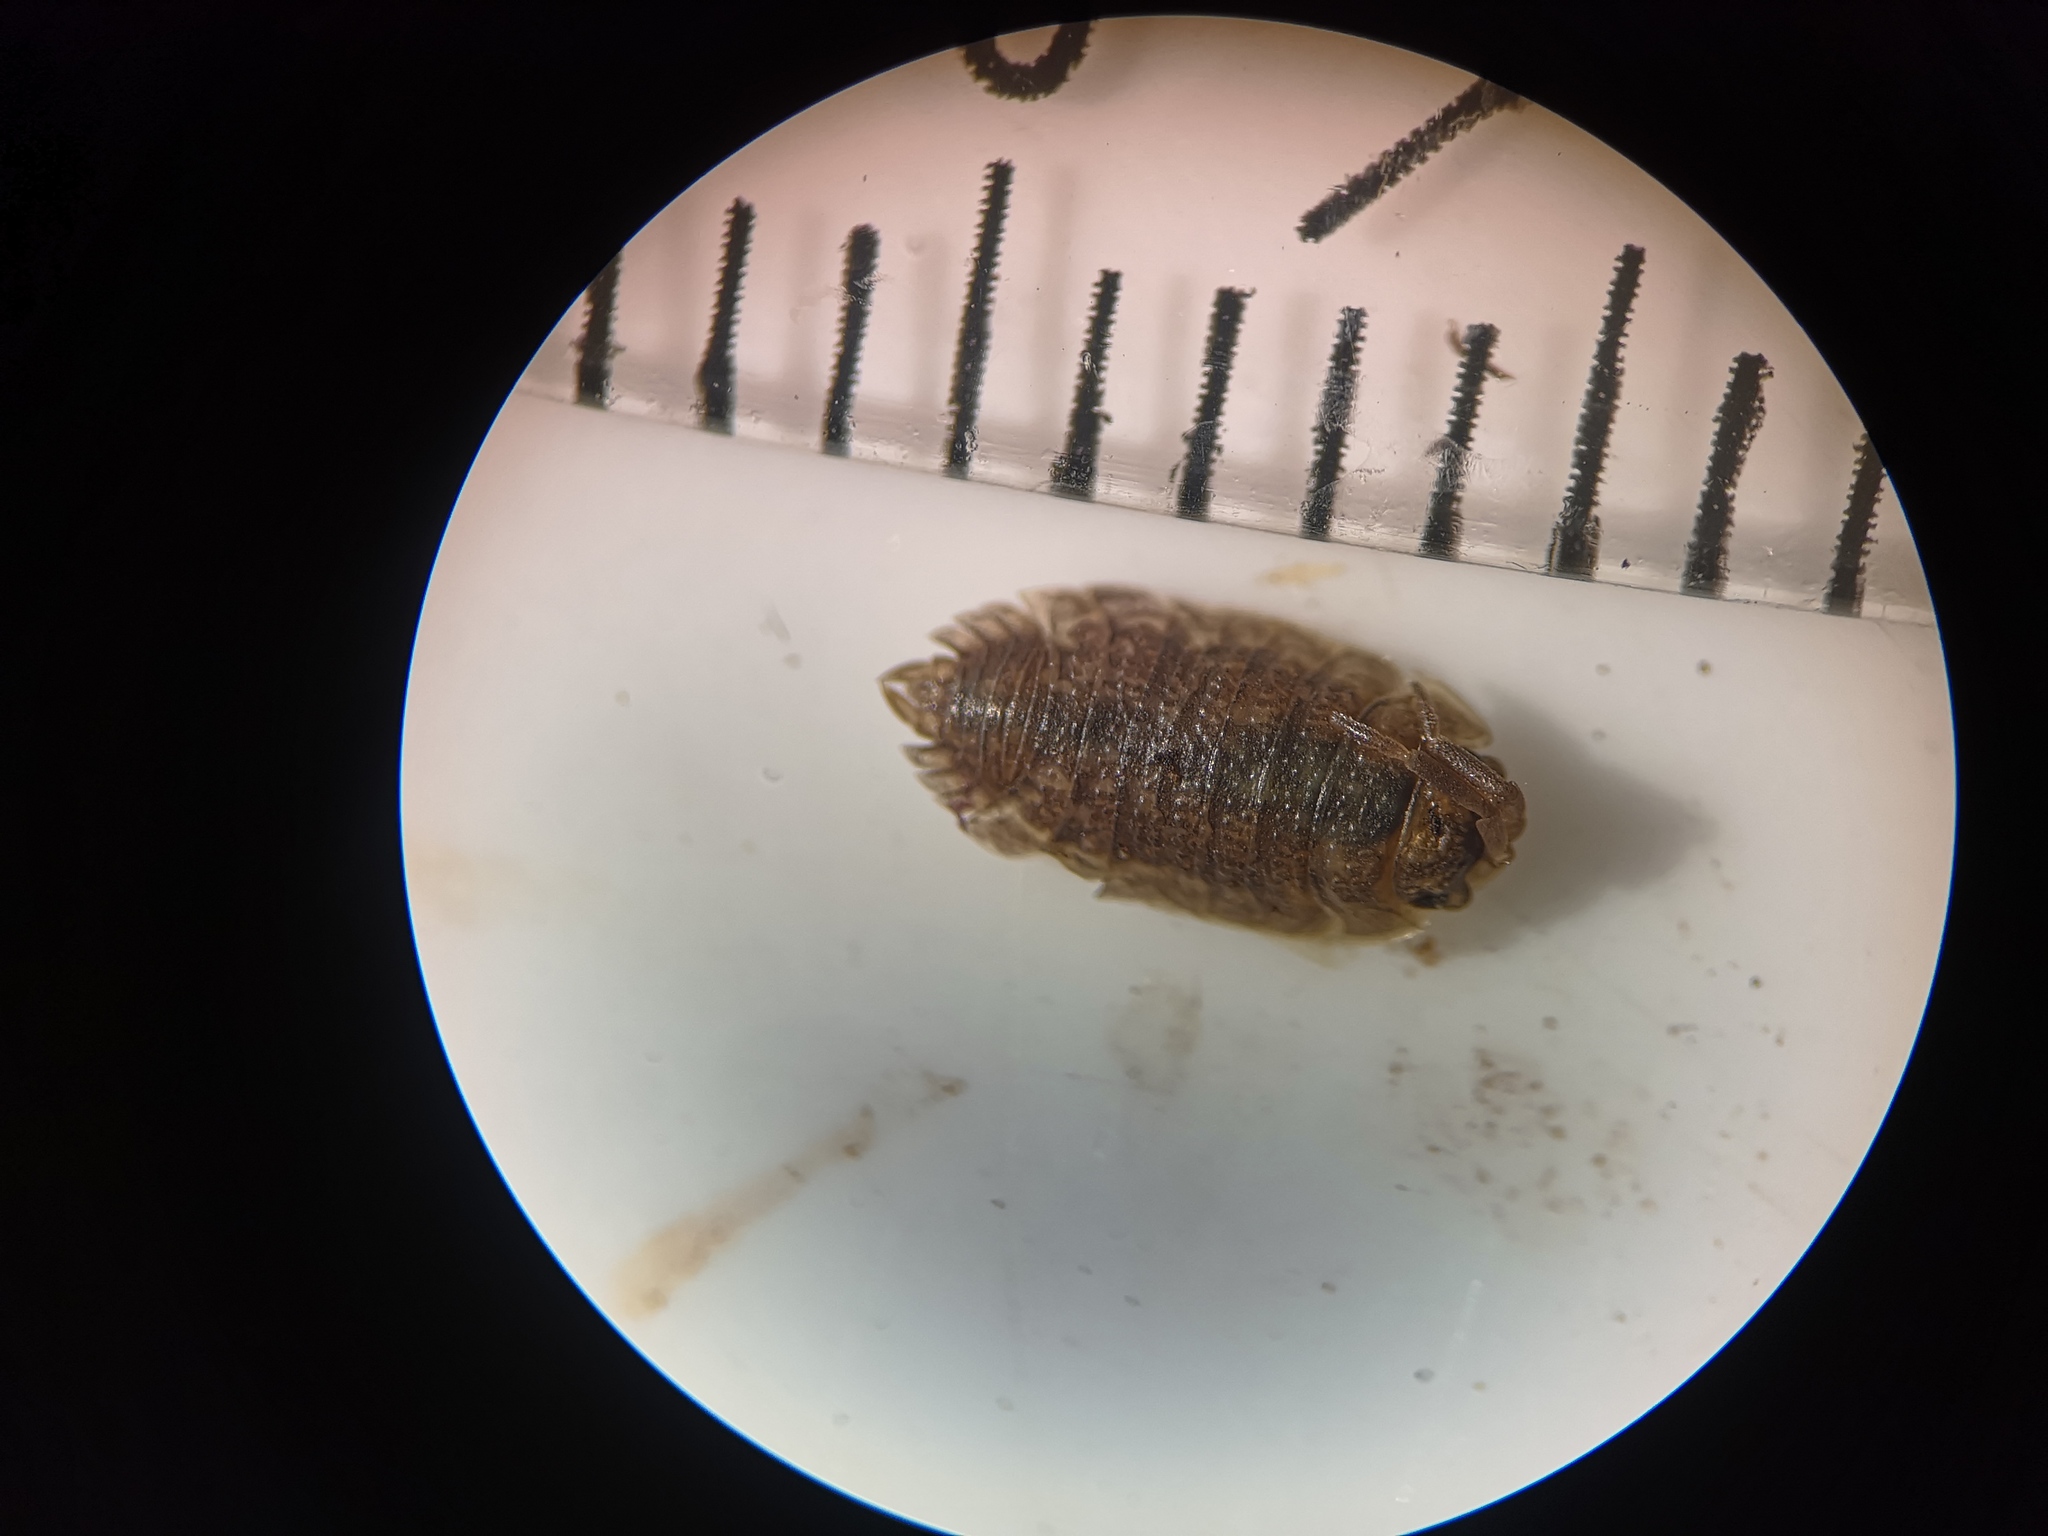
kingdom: Animalia
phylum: Arthropoda
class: Malacostraca
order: Isopoda
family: Porcellionidae
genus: Porcellio
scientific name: Porcellio scaber
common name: Common rough woodlouse
